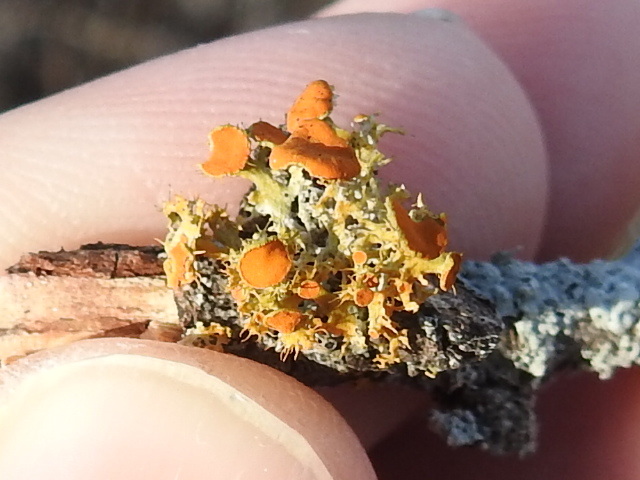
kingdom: Fungi
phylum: Ascomycota
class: Lecanoromycetes
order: Teloschistales
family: Teloschistaceae
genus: Niorma
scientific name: Niorma chrysophthalma
